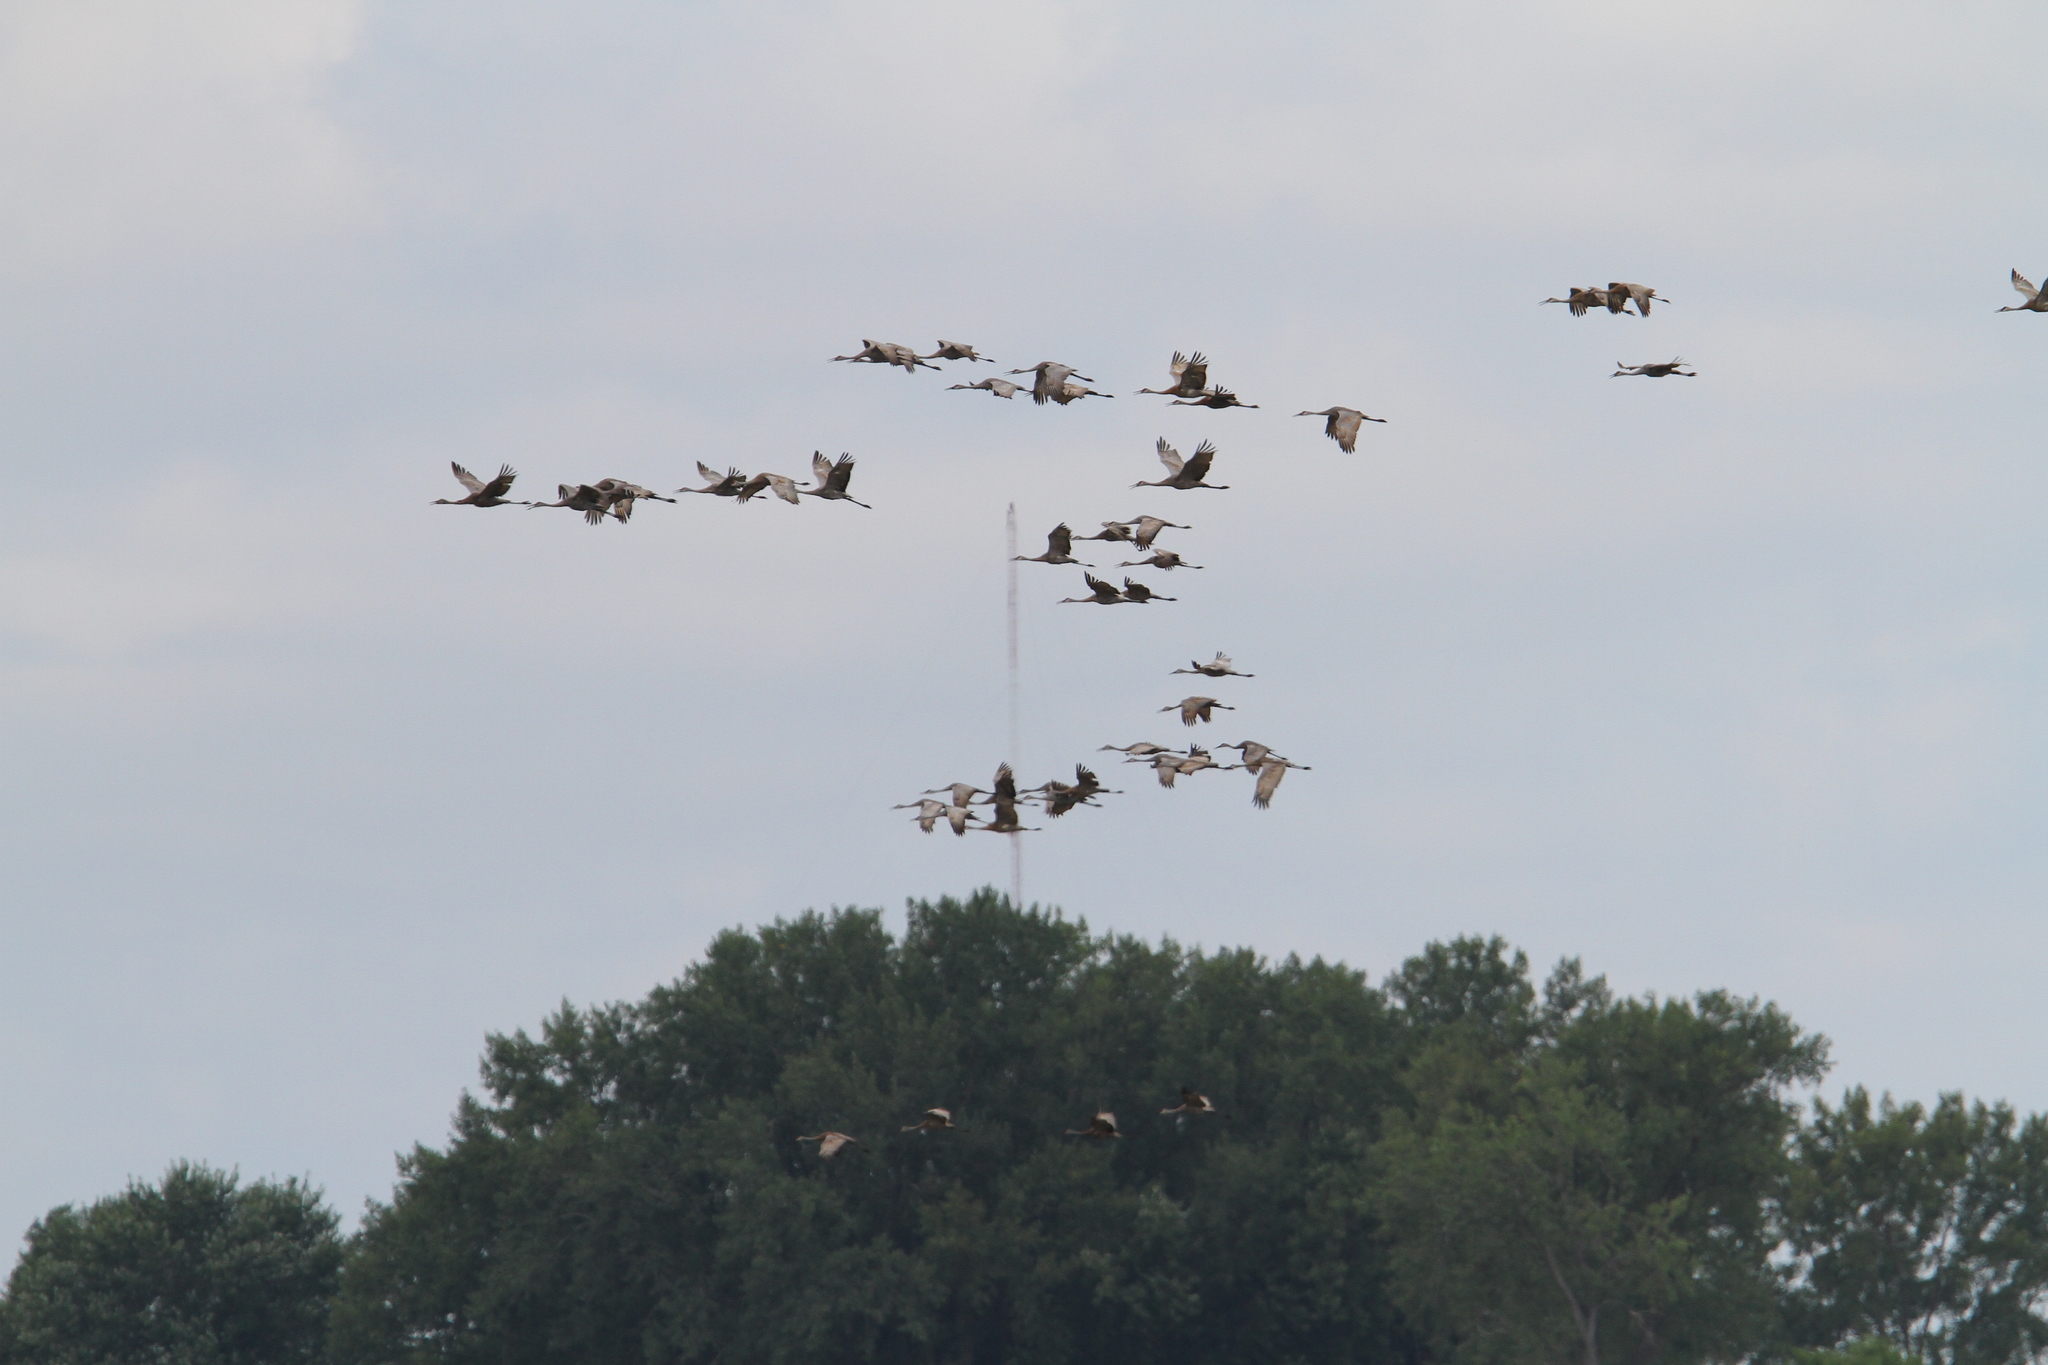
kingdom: Animalia
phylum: Chordata
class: Aves
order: Gruiformes
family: Gruidae
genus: Grus
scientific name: Grus canadensis
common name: Sandhill crane
